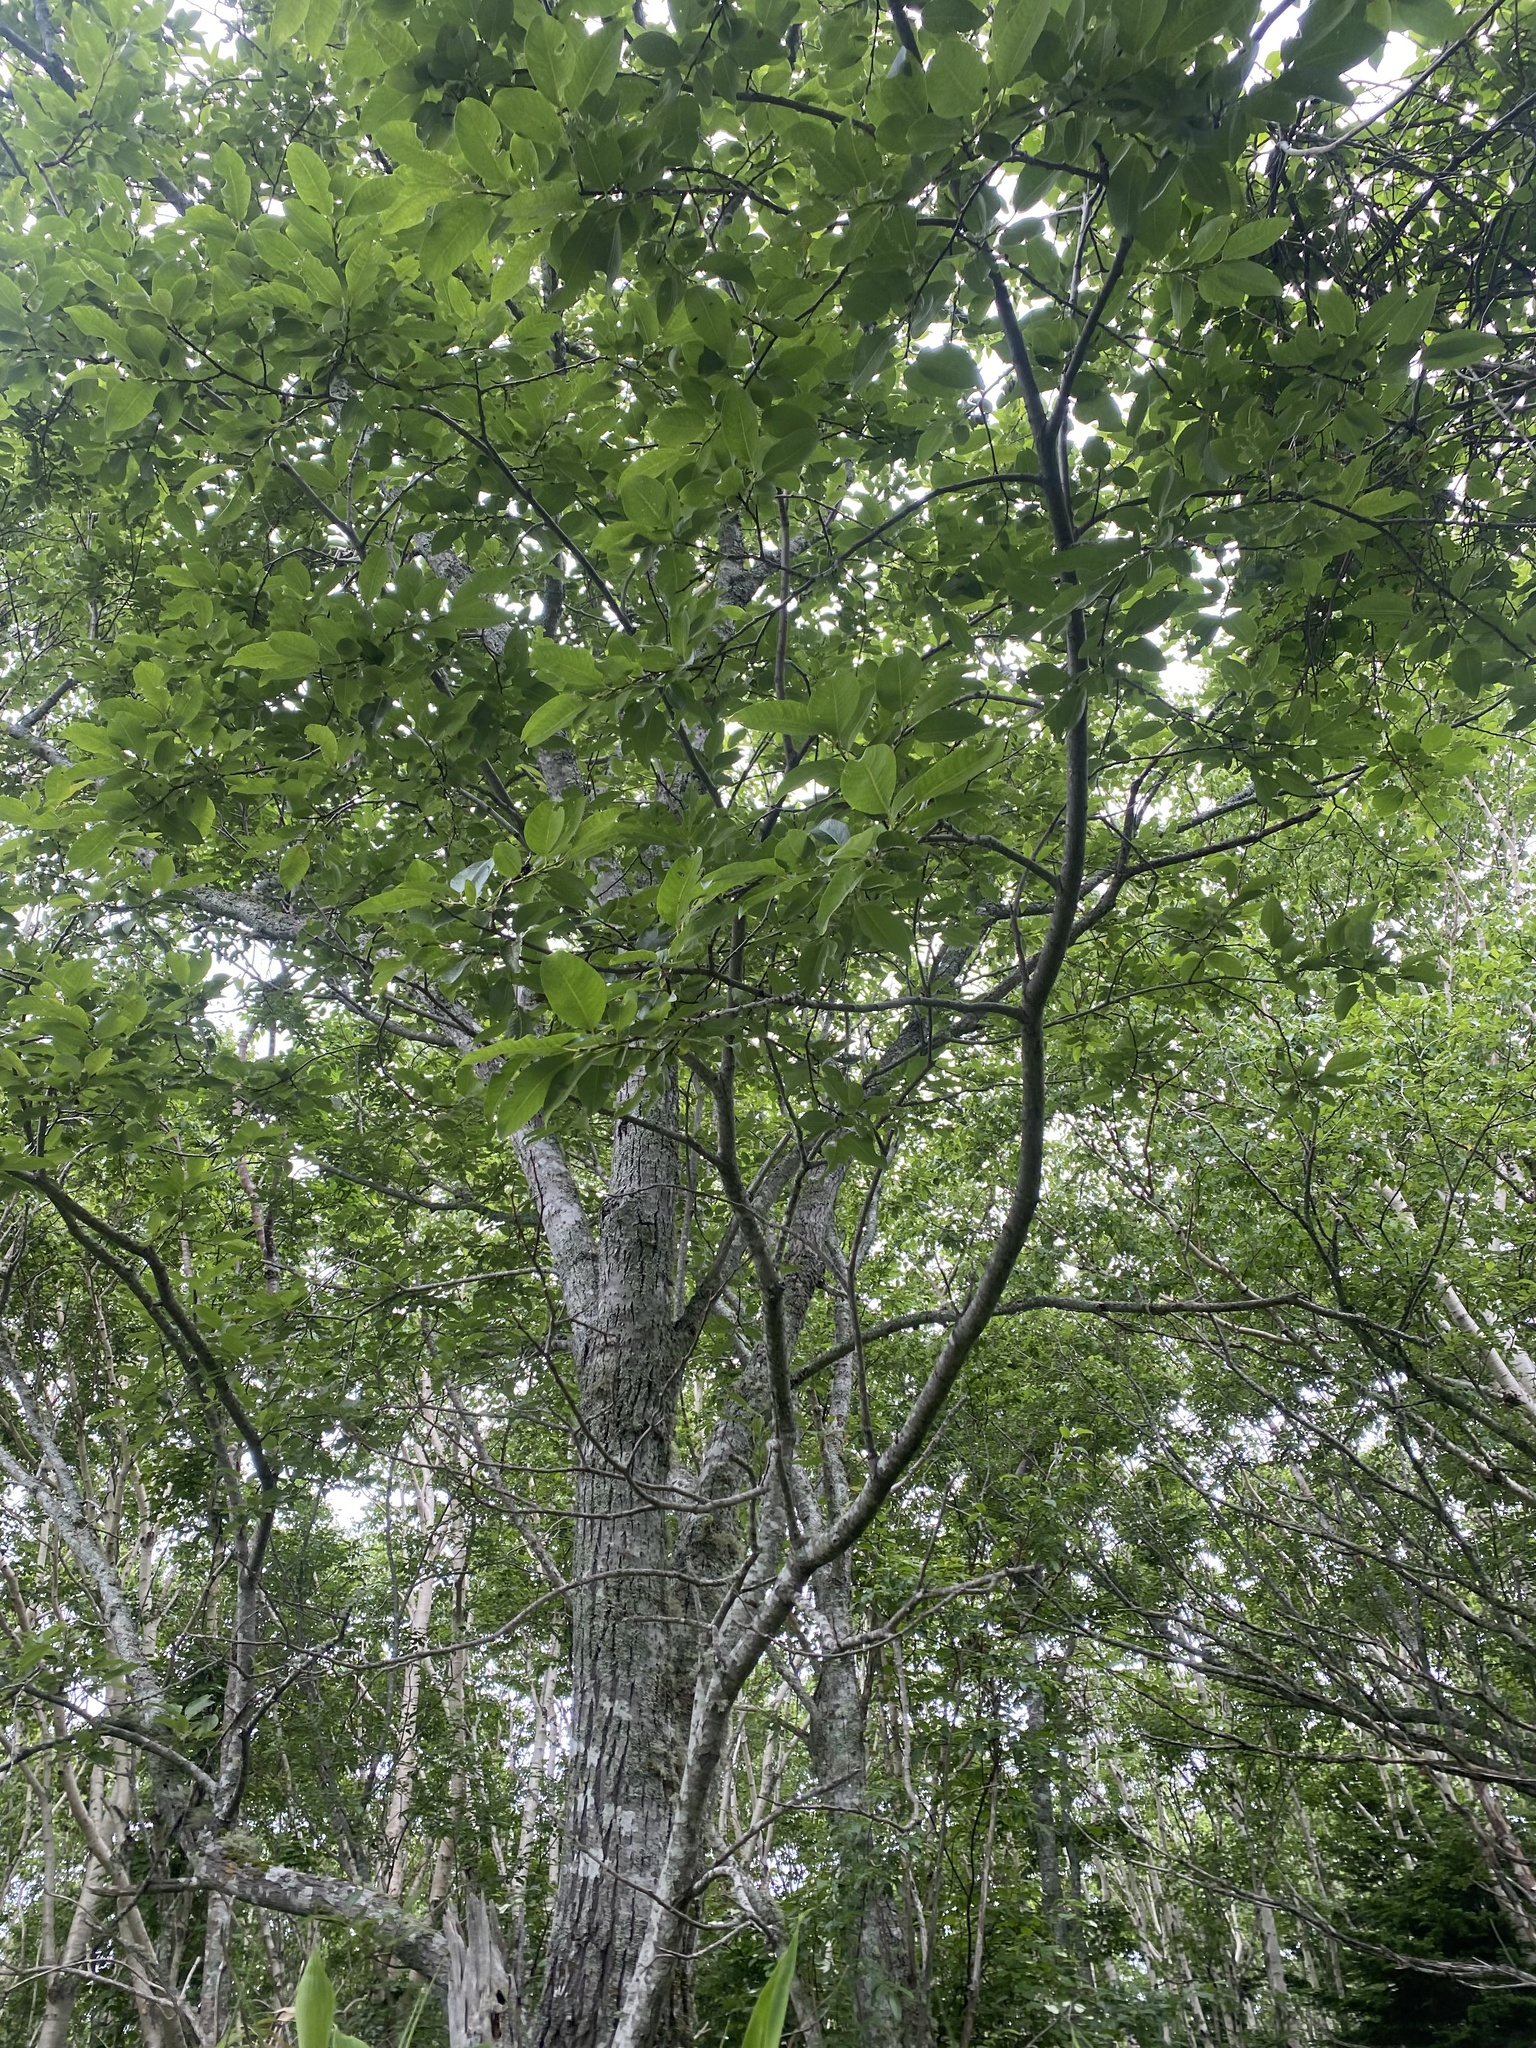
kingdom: Plantae
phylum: Tracheophyta
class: Magnoliopsida
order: Malpighiales
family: Salicaceae
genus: Salix
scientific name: Salix caprea
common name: Goat willow
